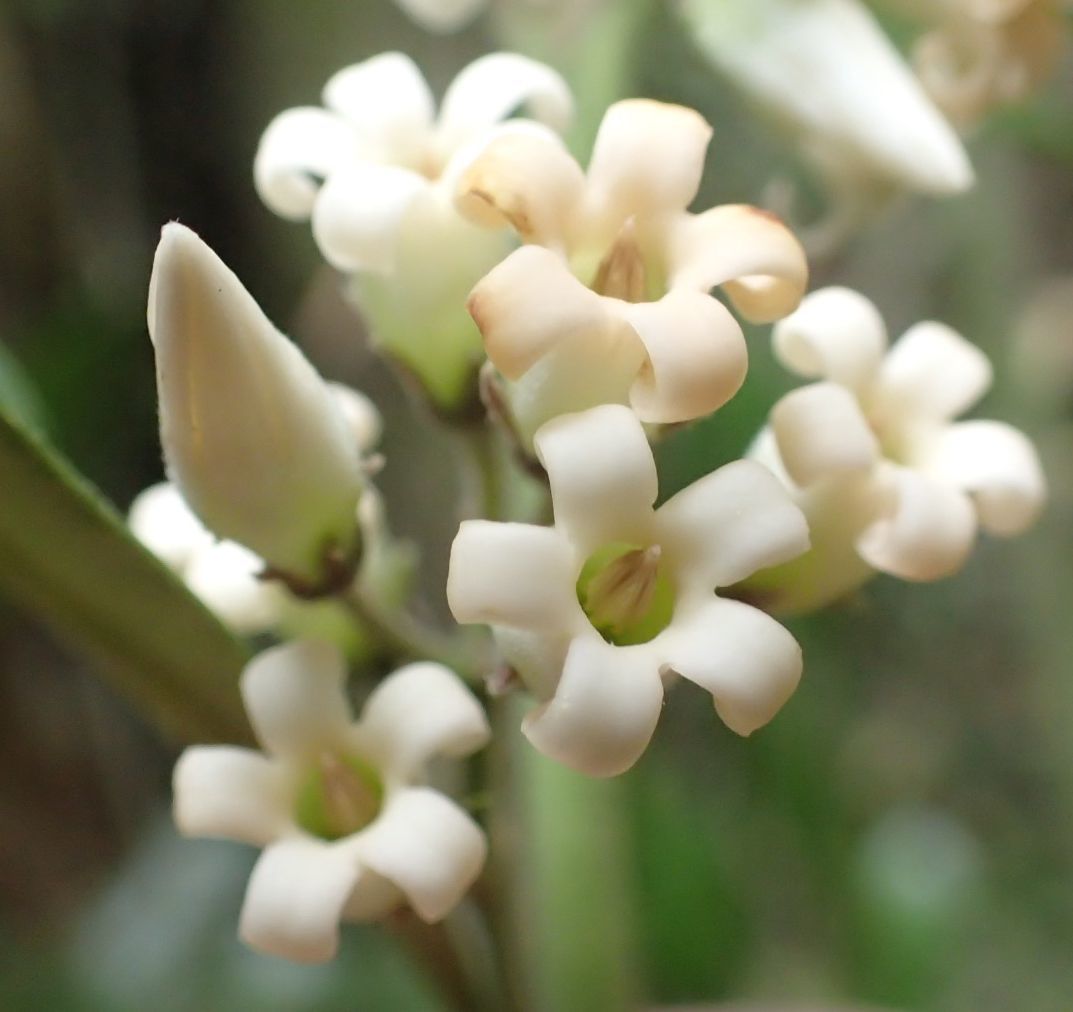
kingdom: Plantae
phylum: Tracheophyta
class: Magnoliopsida
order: Gentianales
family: Apocynaceae
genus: Parsonsia
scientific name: Parsonsia heterophylla
